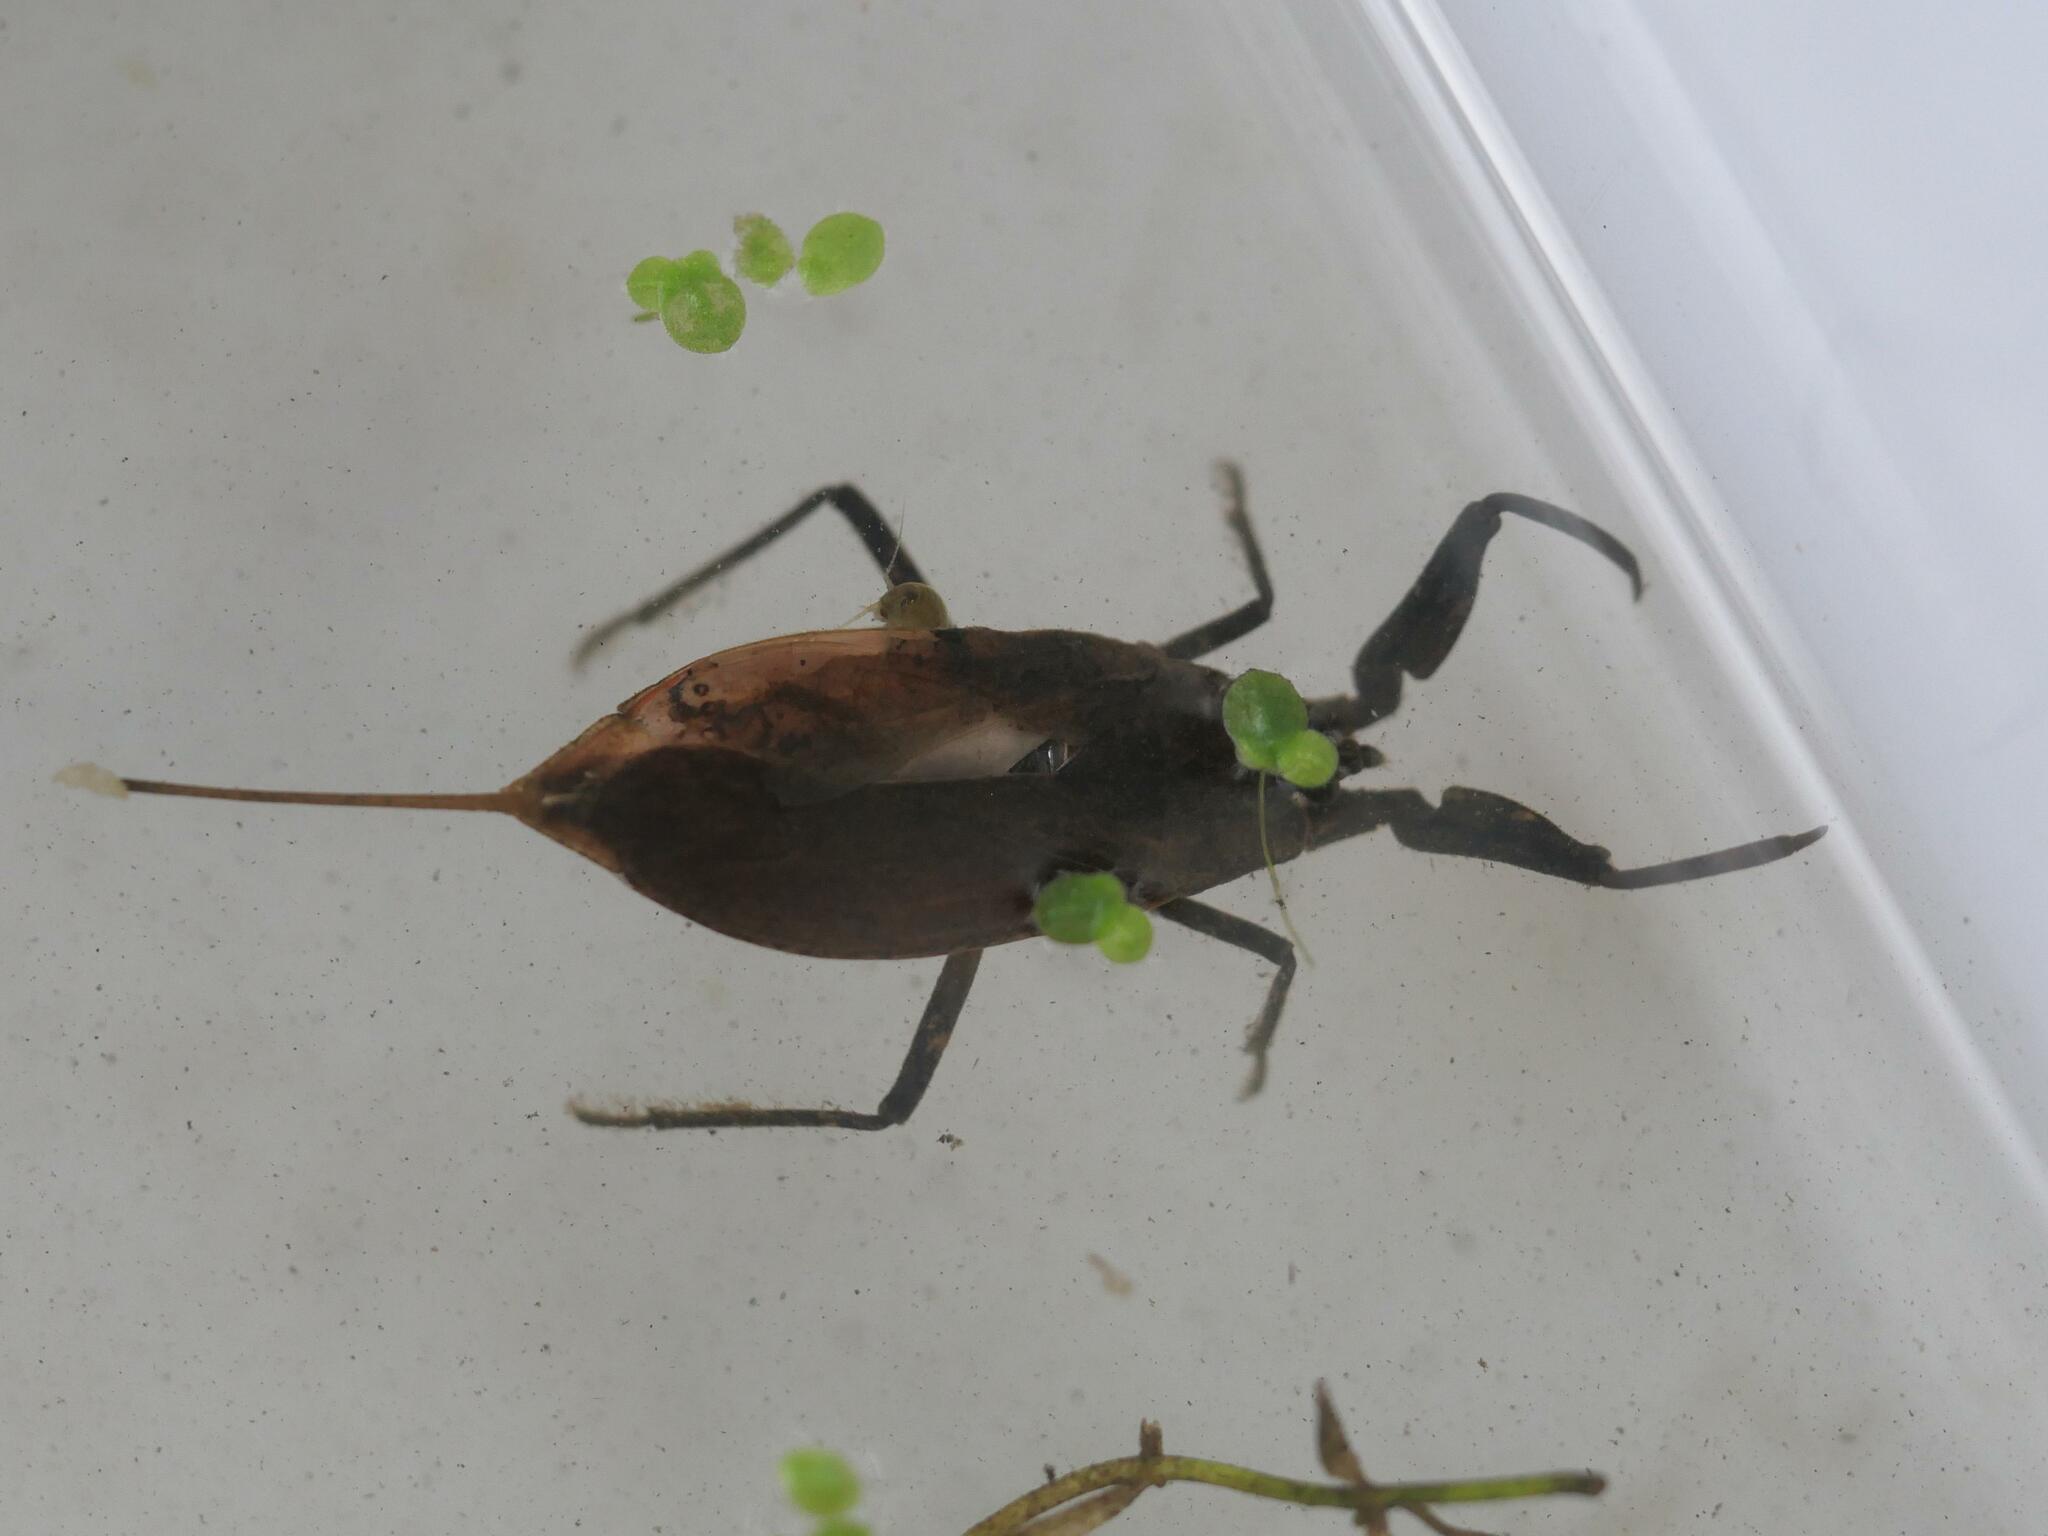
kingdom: Animalia
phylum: Arthropoda
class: Insecta
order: Hemiptera
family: Nepidae
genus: Nepa
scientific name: Nepa cinerea
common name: Water scorpion
